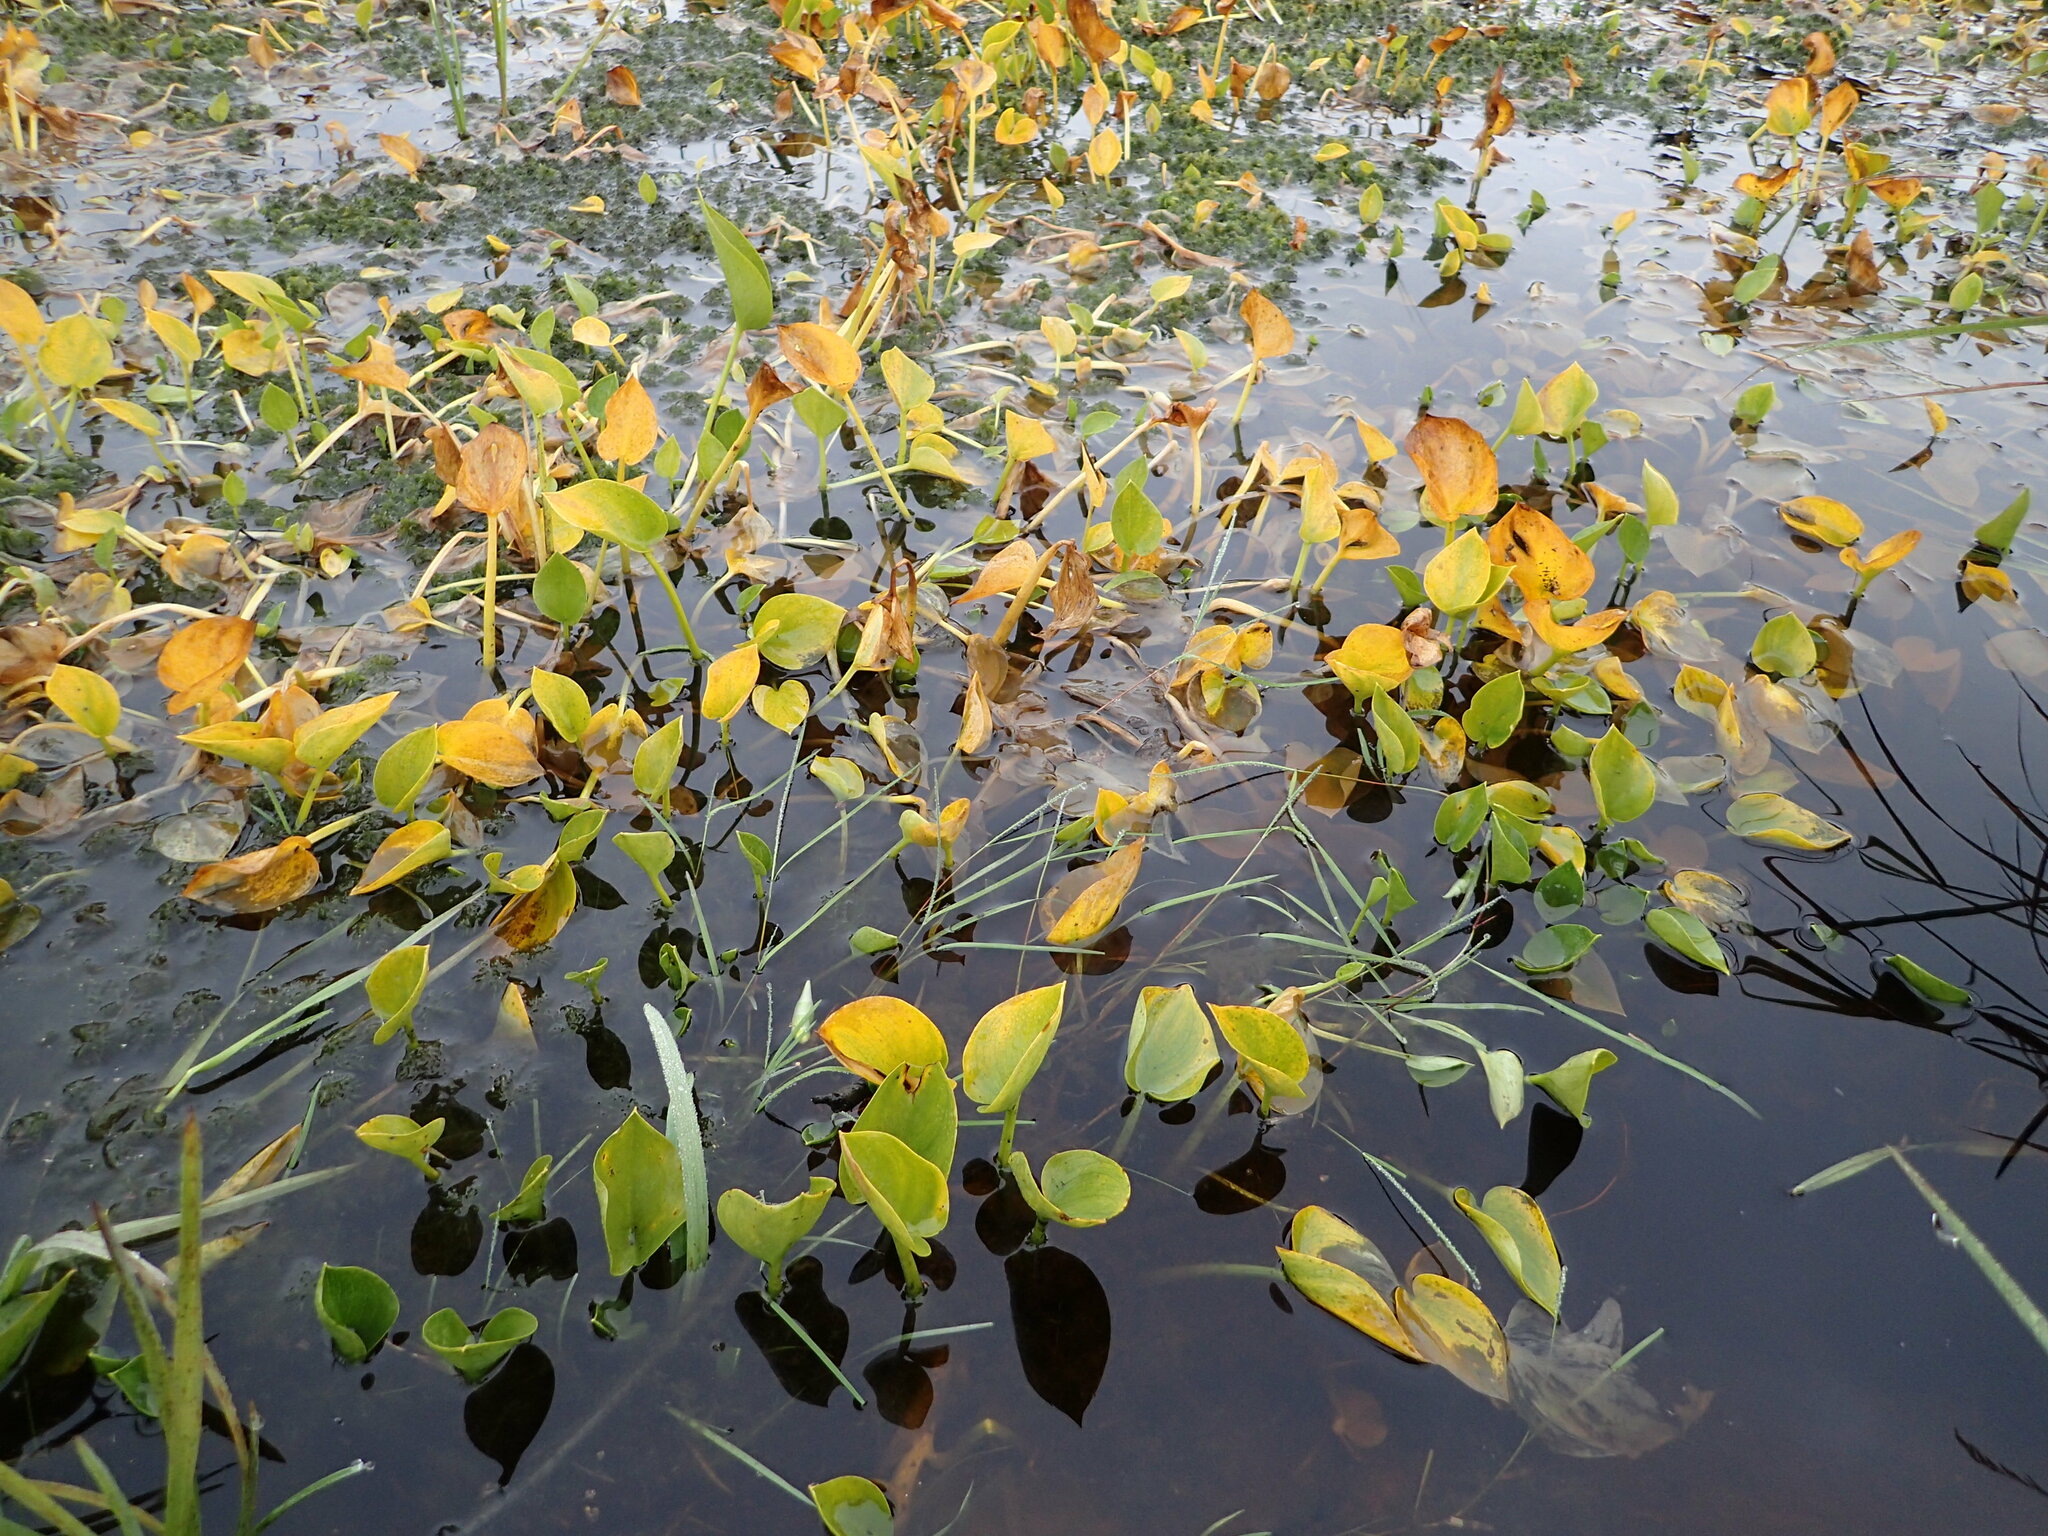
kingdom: Plantae
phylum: Tracheophyta
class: Liliopsida
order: Alismatales
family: Araceae
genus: Calla
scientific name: Calla palustris
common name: Bog arum
